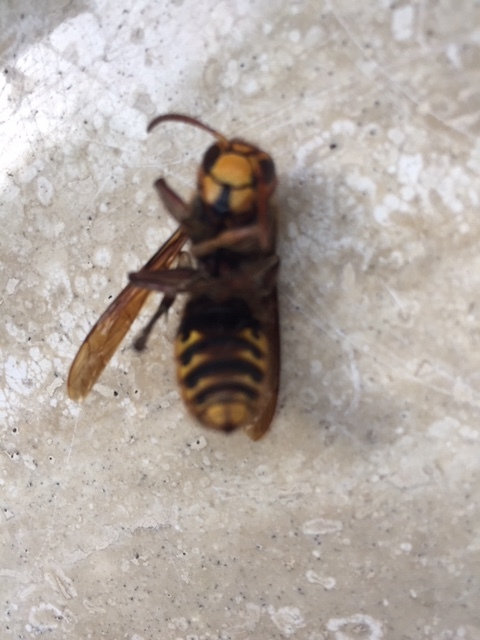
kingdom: Animalia
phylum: Arthropoda
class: Insecta
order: Hymenoptera
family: Vespidae
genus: Vespa
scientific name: Vespa crabro
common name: Hornet
